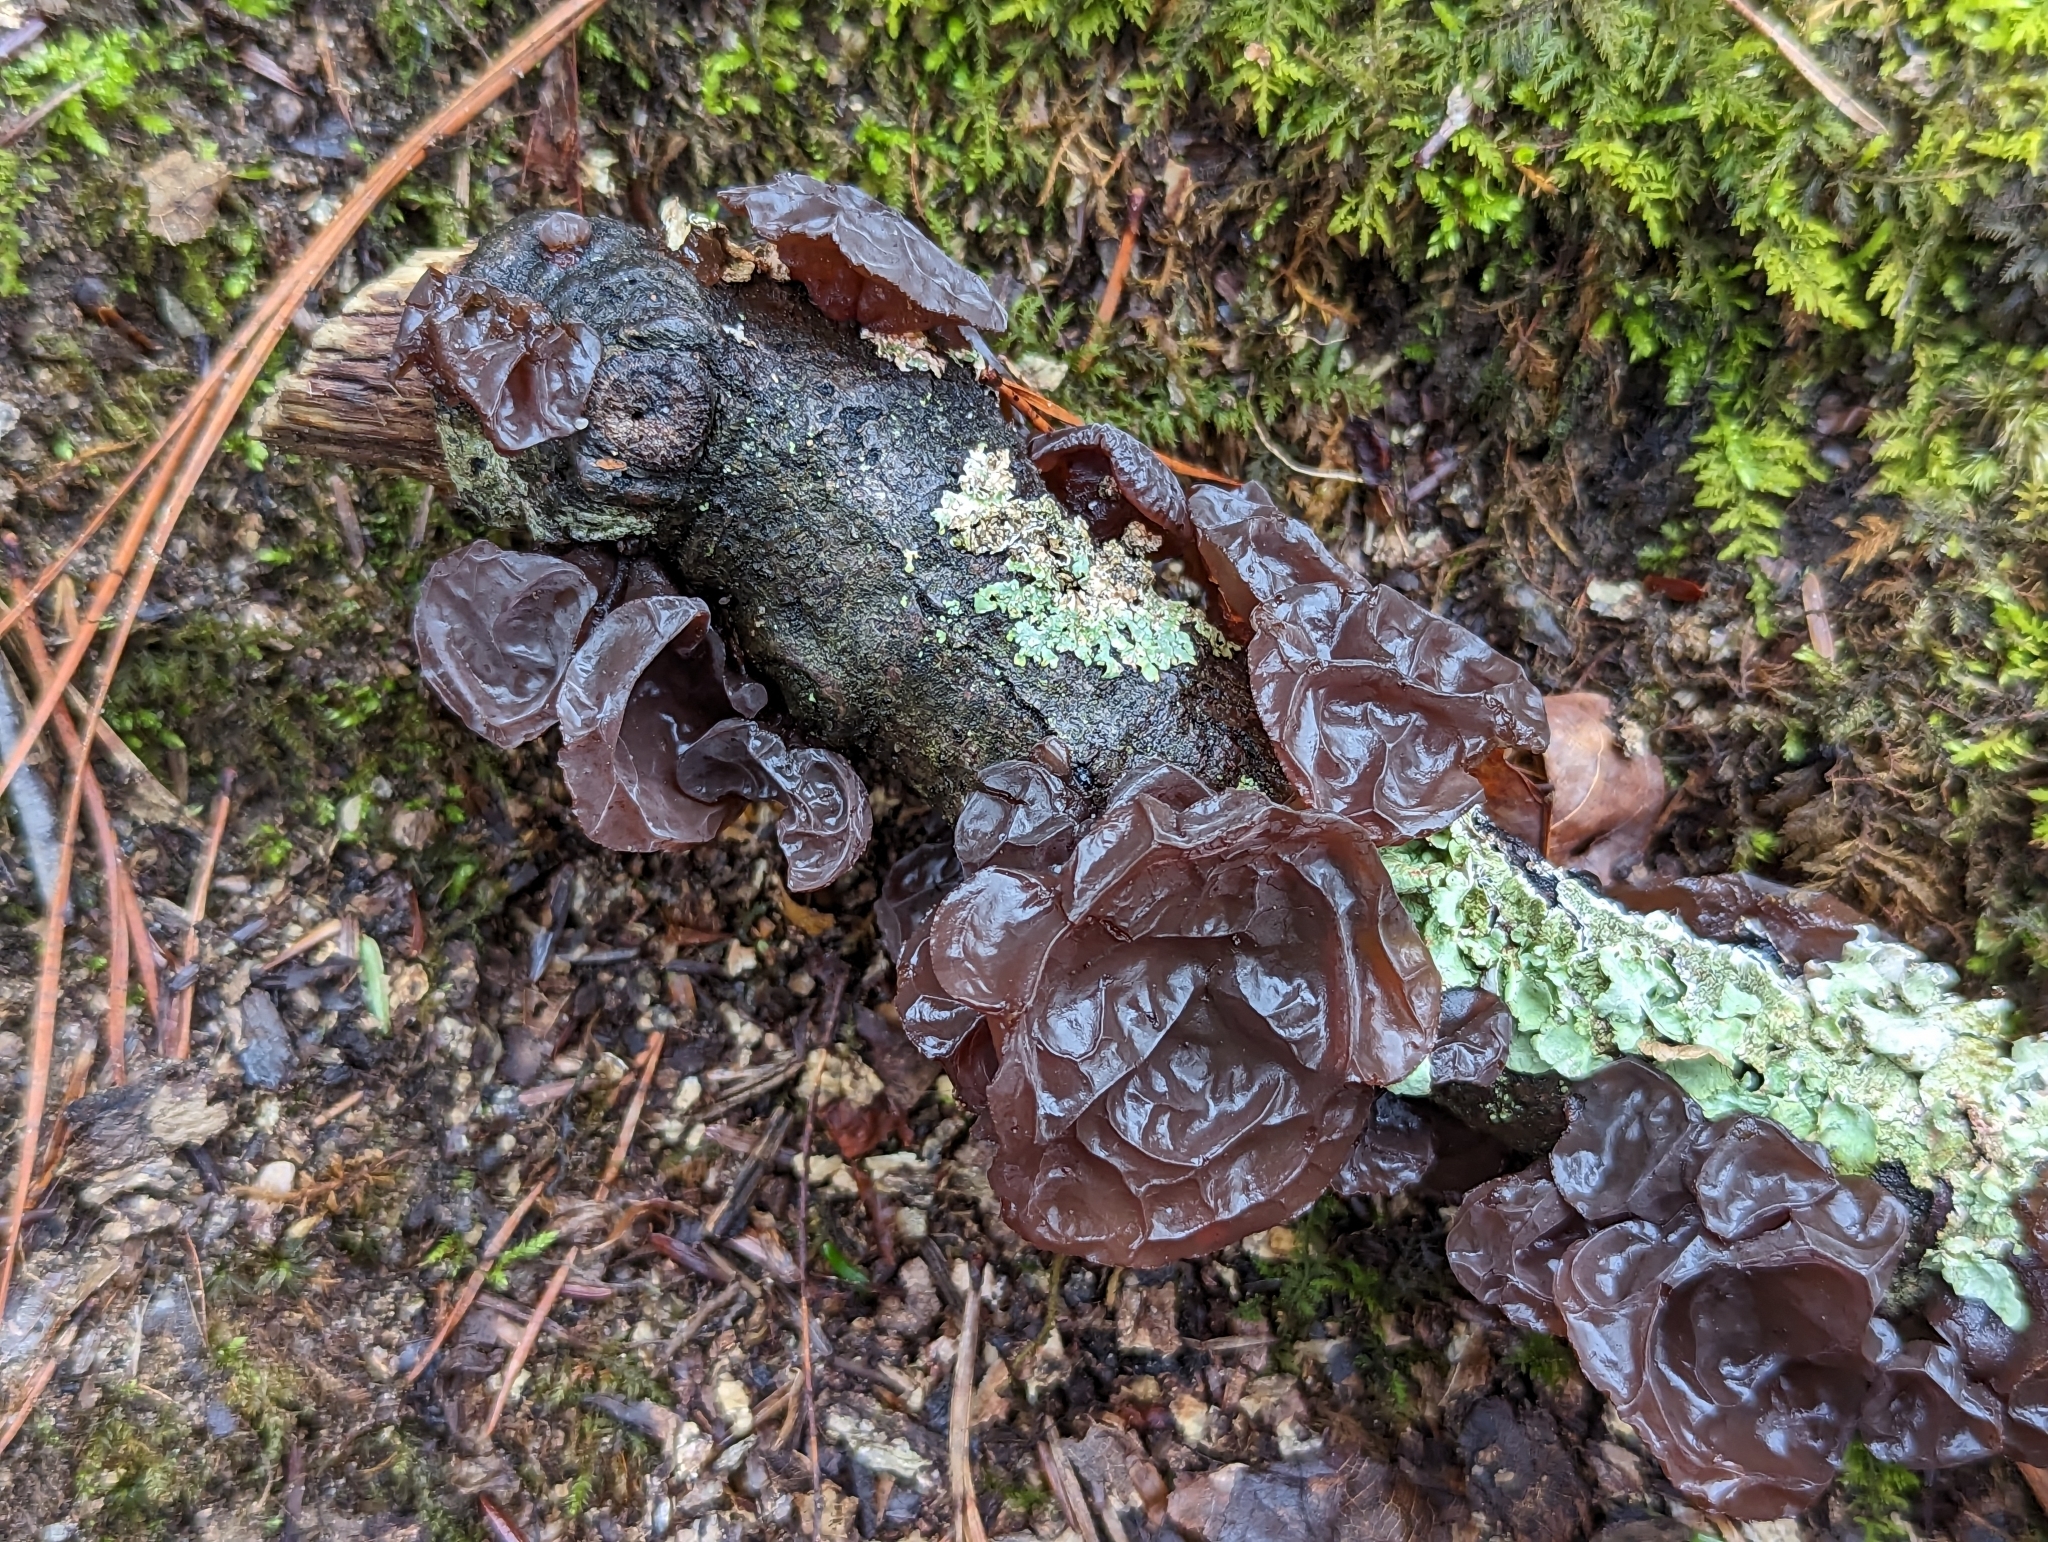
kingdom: Fungi
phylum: Basidiomycota
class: Agaricomycetes
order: Auriculariales
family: Auriculariaceae
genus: Exidia
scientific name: Exidia
